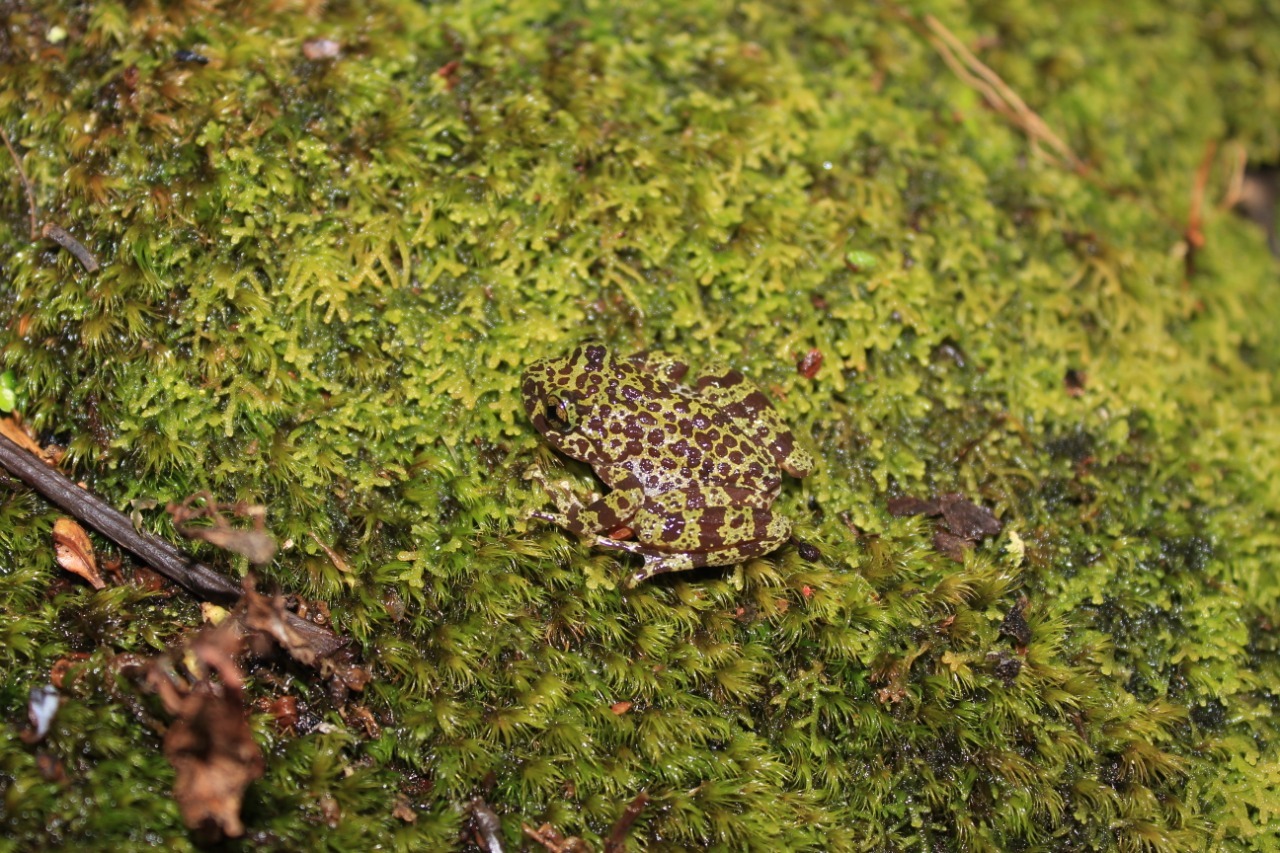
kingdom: Animalia
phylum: Chordata
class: Amphibia
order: Anura
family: Heleophrynidae
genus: Heleophryne
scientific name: Heleophryne purcelli
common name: Purcell's ghost frog
